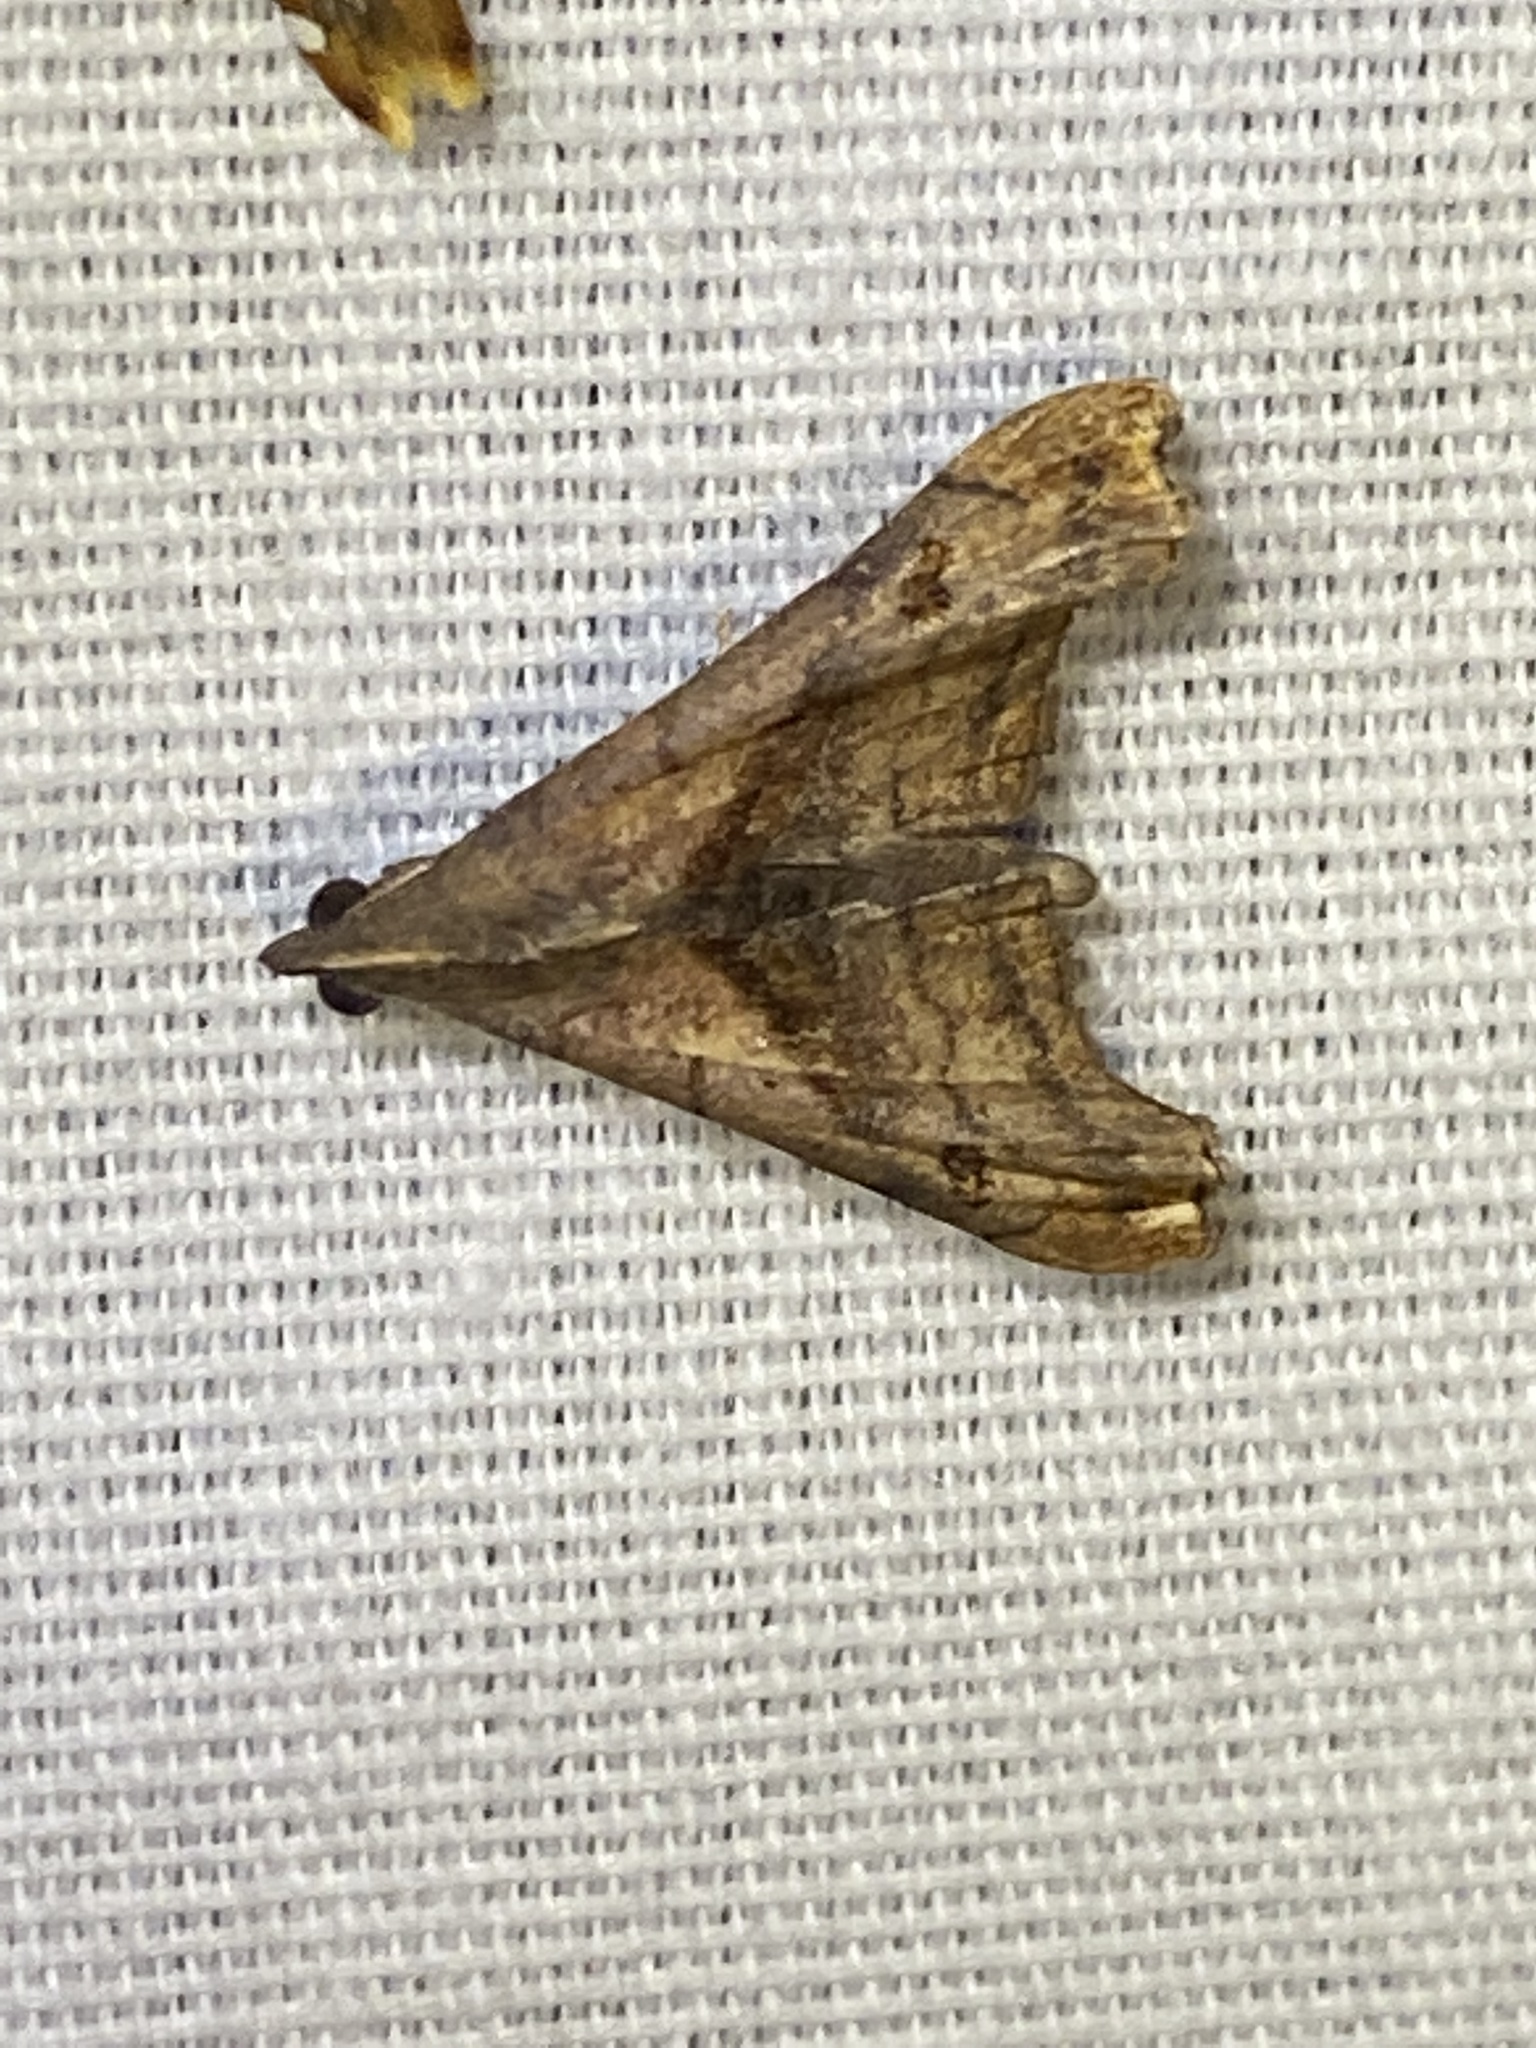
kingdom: Animalia
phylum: Arthropoda
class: Insecta
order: Lepidoptera
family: Erebidae
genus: Palthis
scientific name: Palthis angulalis
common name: Dark-spotted palthis moth
